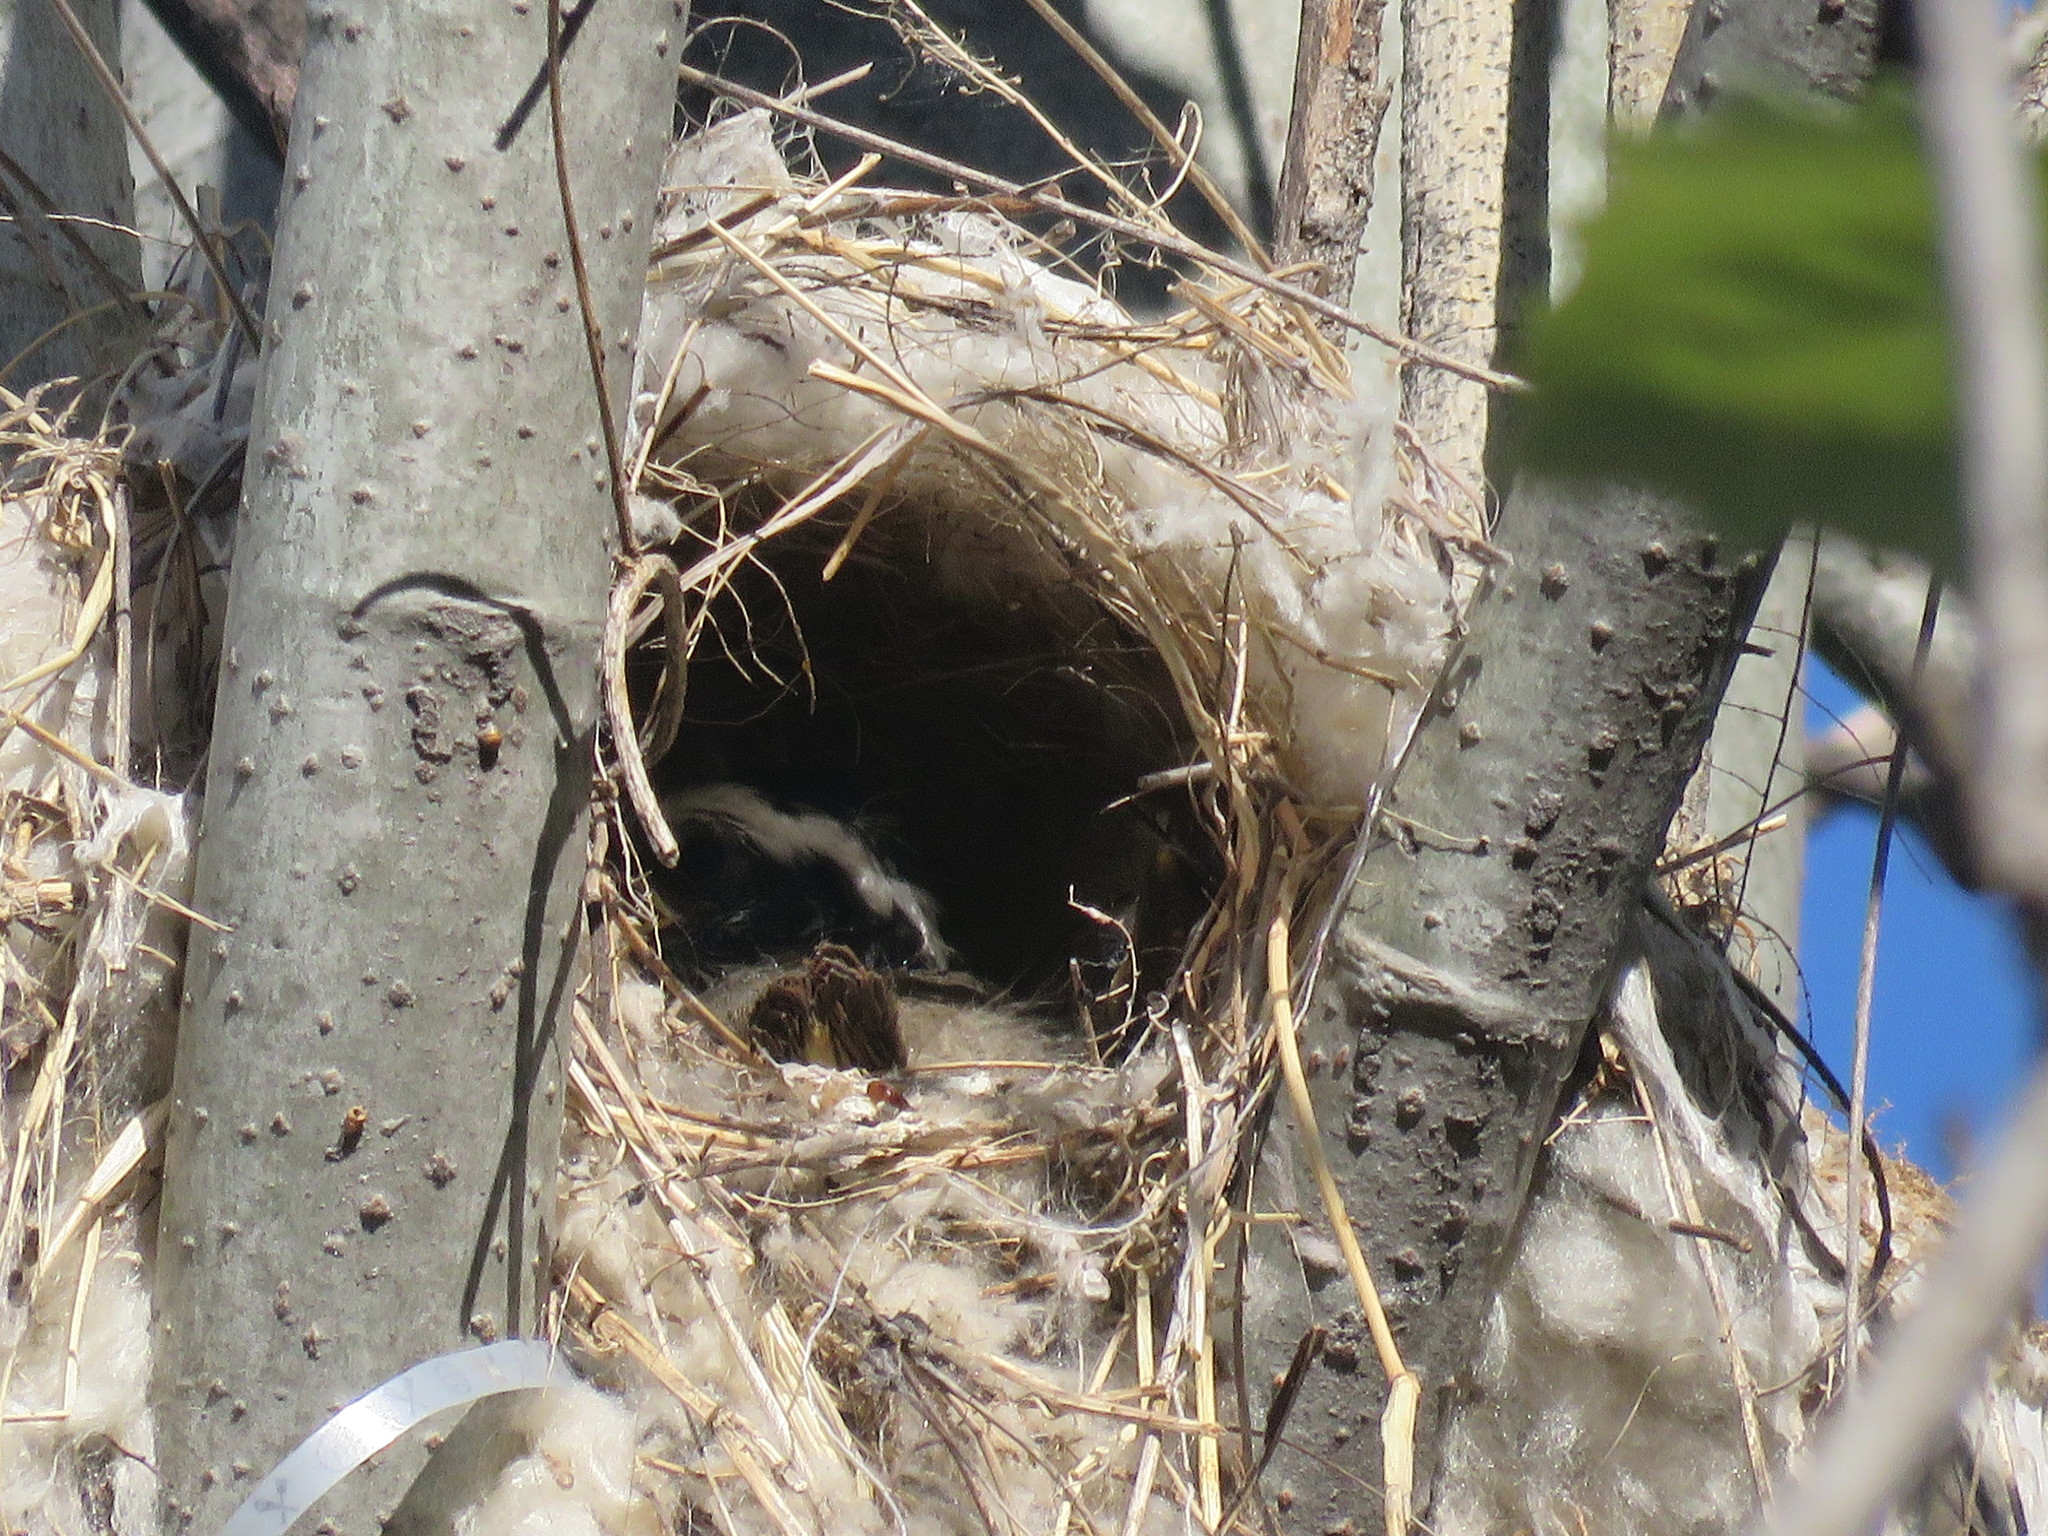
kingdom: Animalia
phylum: Chordata
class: Aves
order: Passeriformes
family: Tyrannidae
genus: Pitangus
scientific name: Pitangus sulphuratus
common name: Great kiskadee
